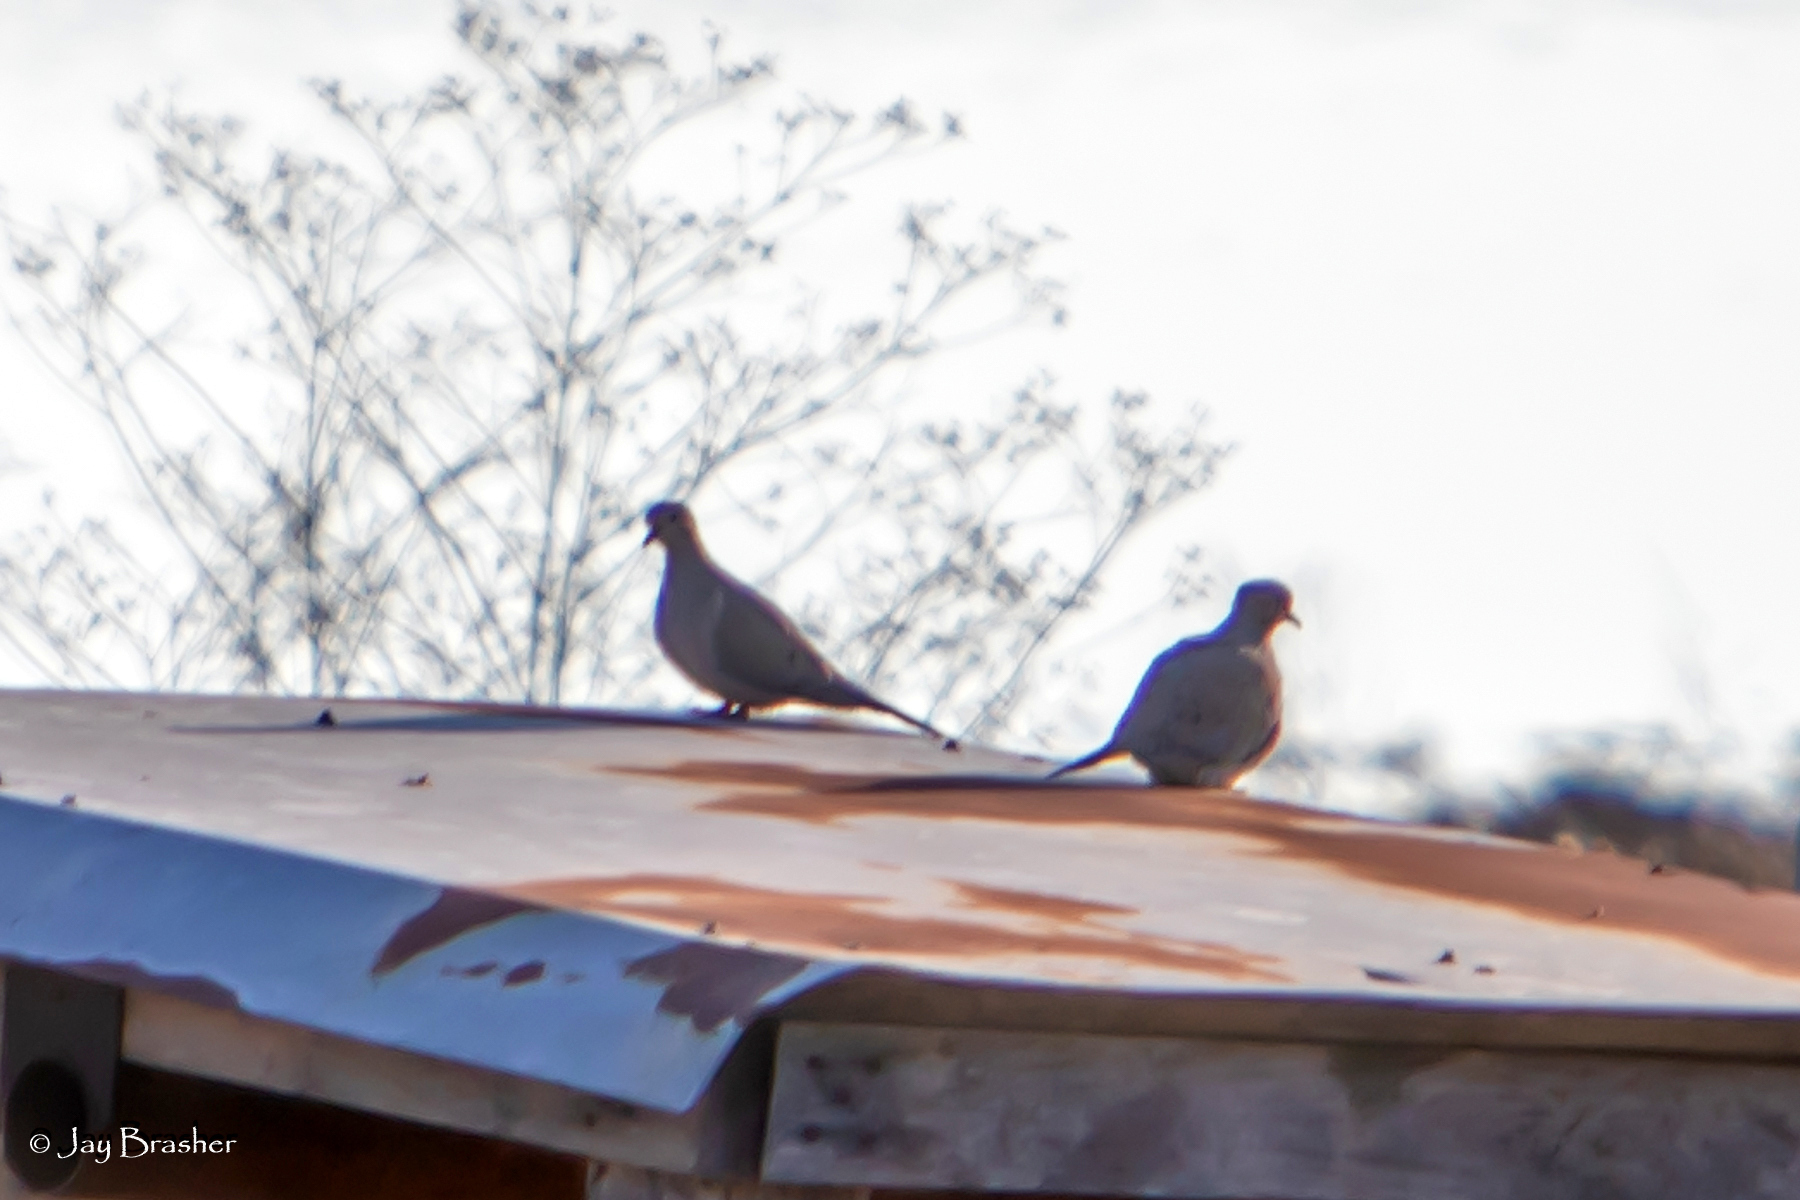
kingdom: Animalia
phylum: Chordata
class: Aves
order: Columbiformes
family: Columbidae
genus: Zenaida
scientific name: Zenaida macroura
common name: Mourning dove
